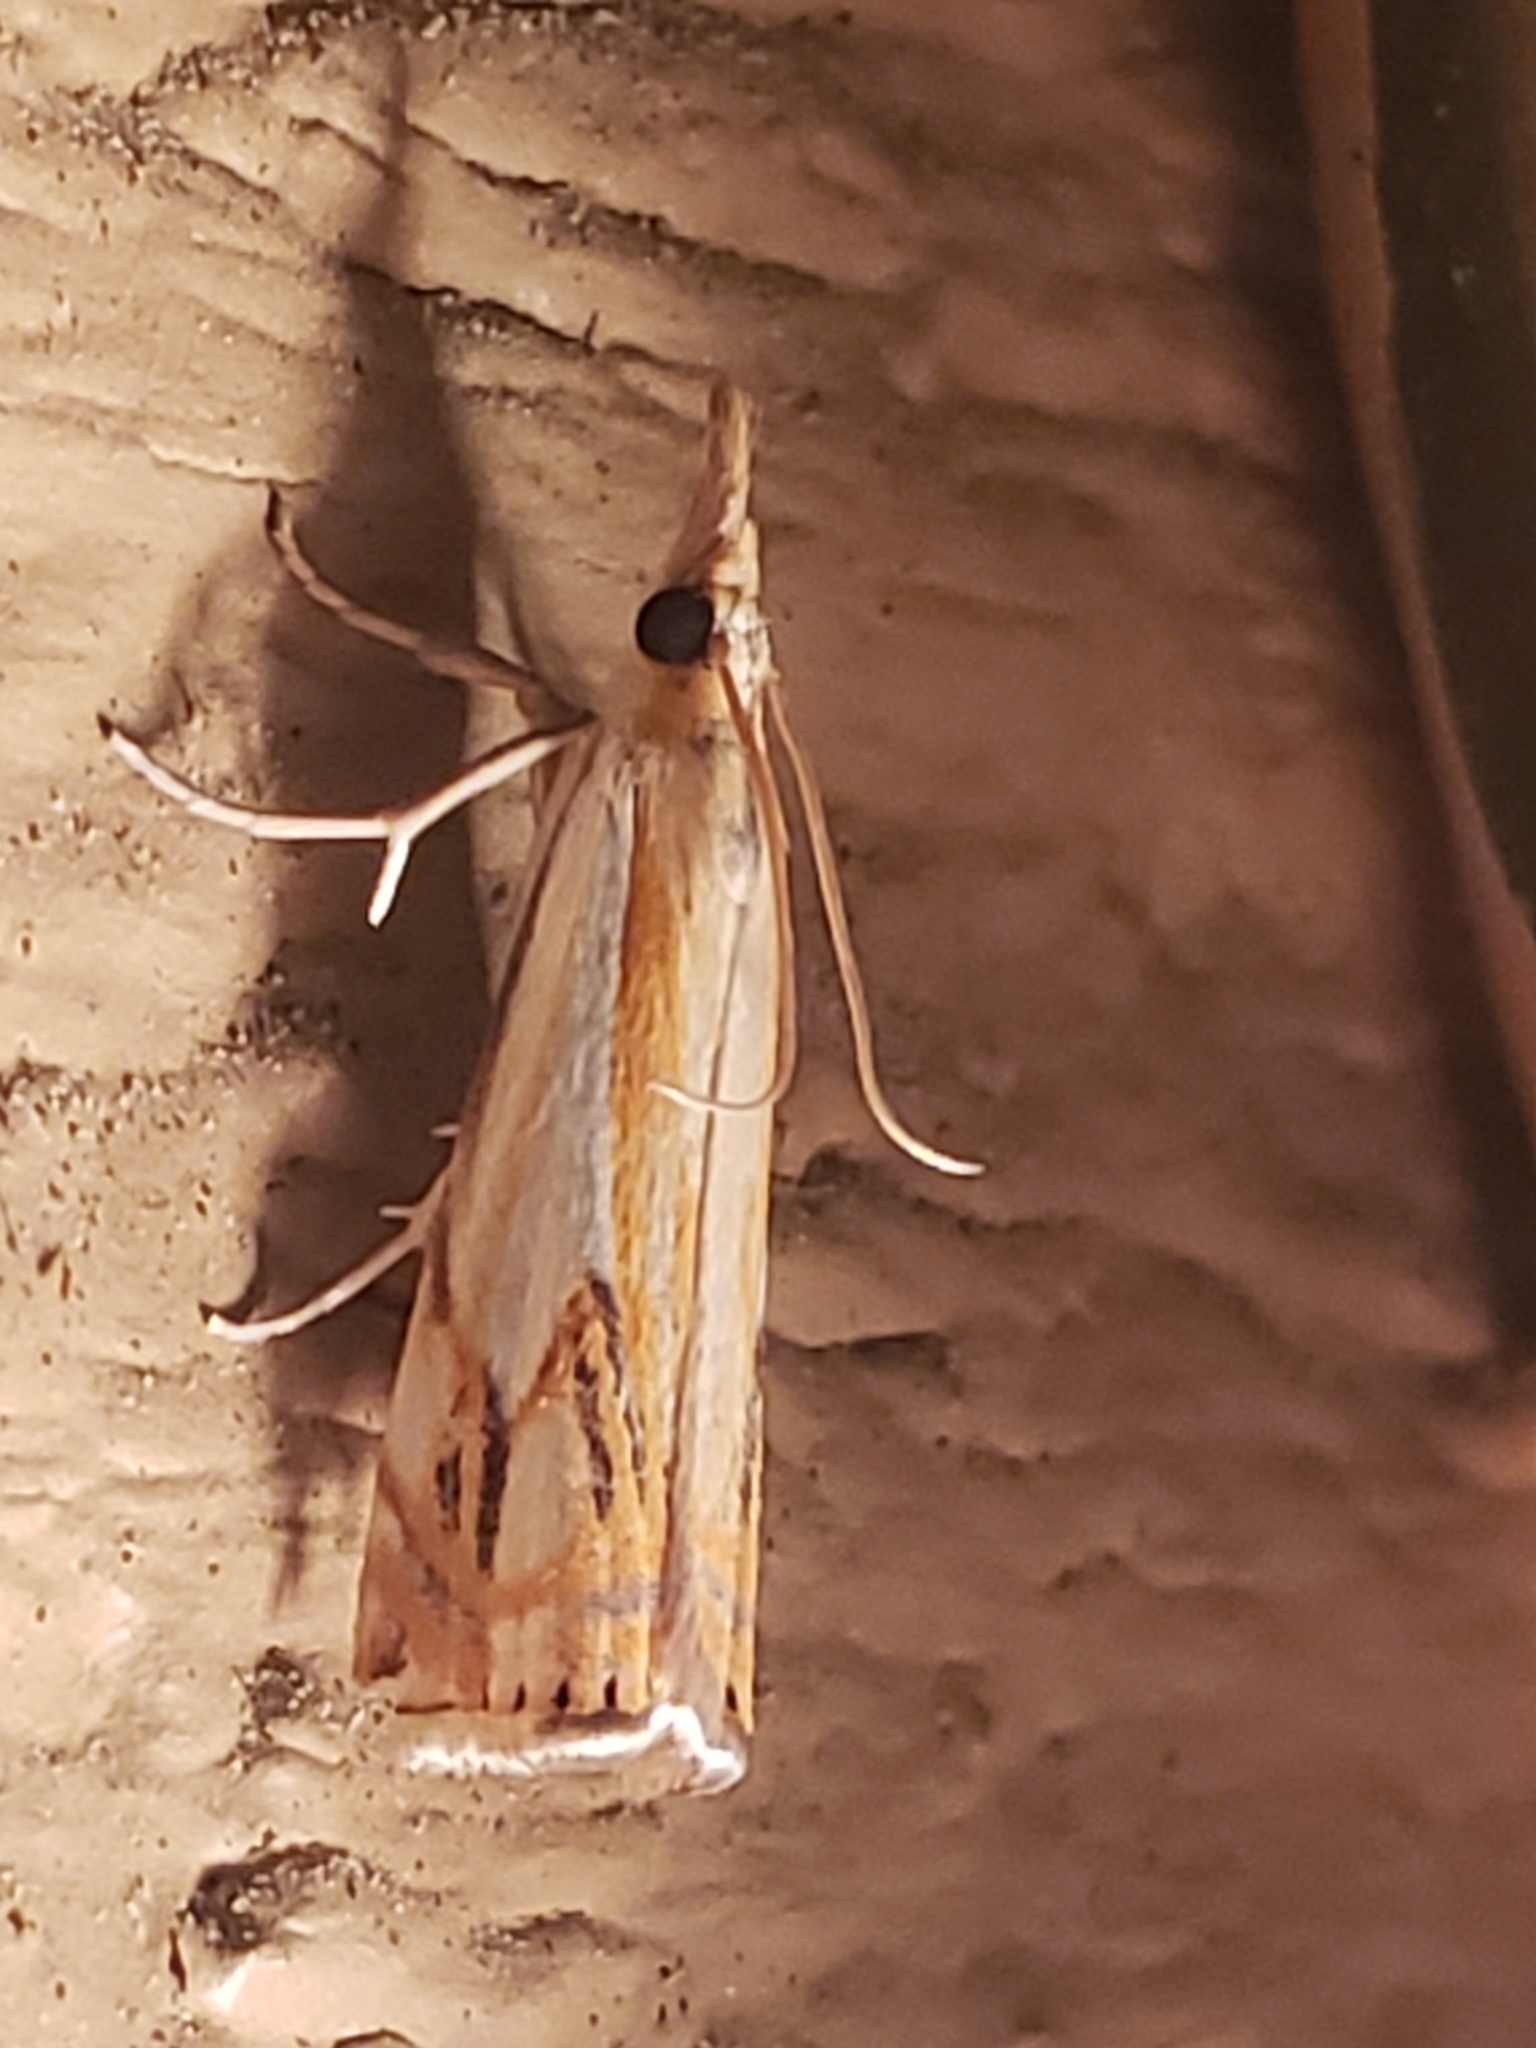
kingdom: Animalia
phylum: Arthropoda
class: Insecta
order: Lepidoptera
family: Crambidae
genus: Crambus
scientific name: Crambus agitatellus
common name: Double-banded grass-veneer
